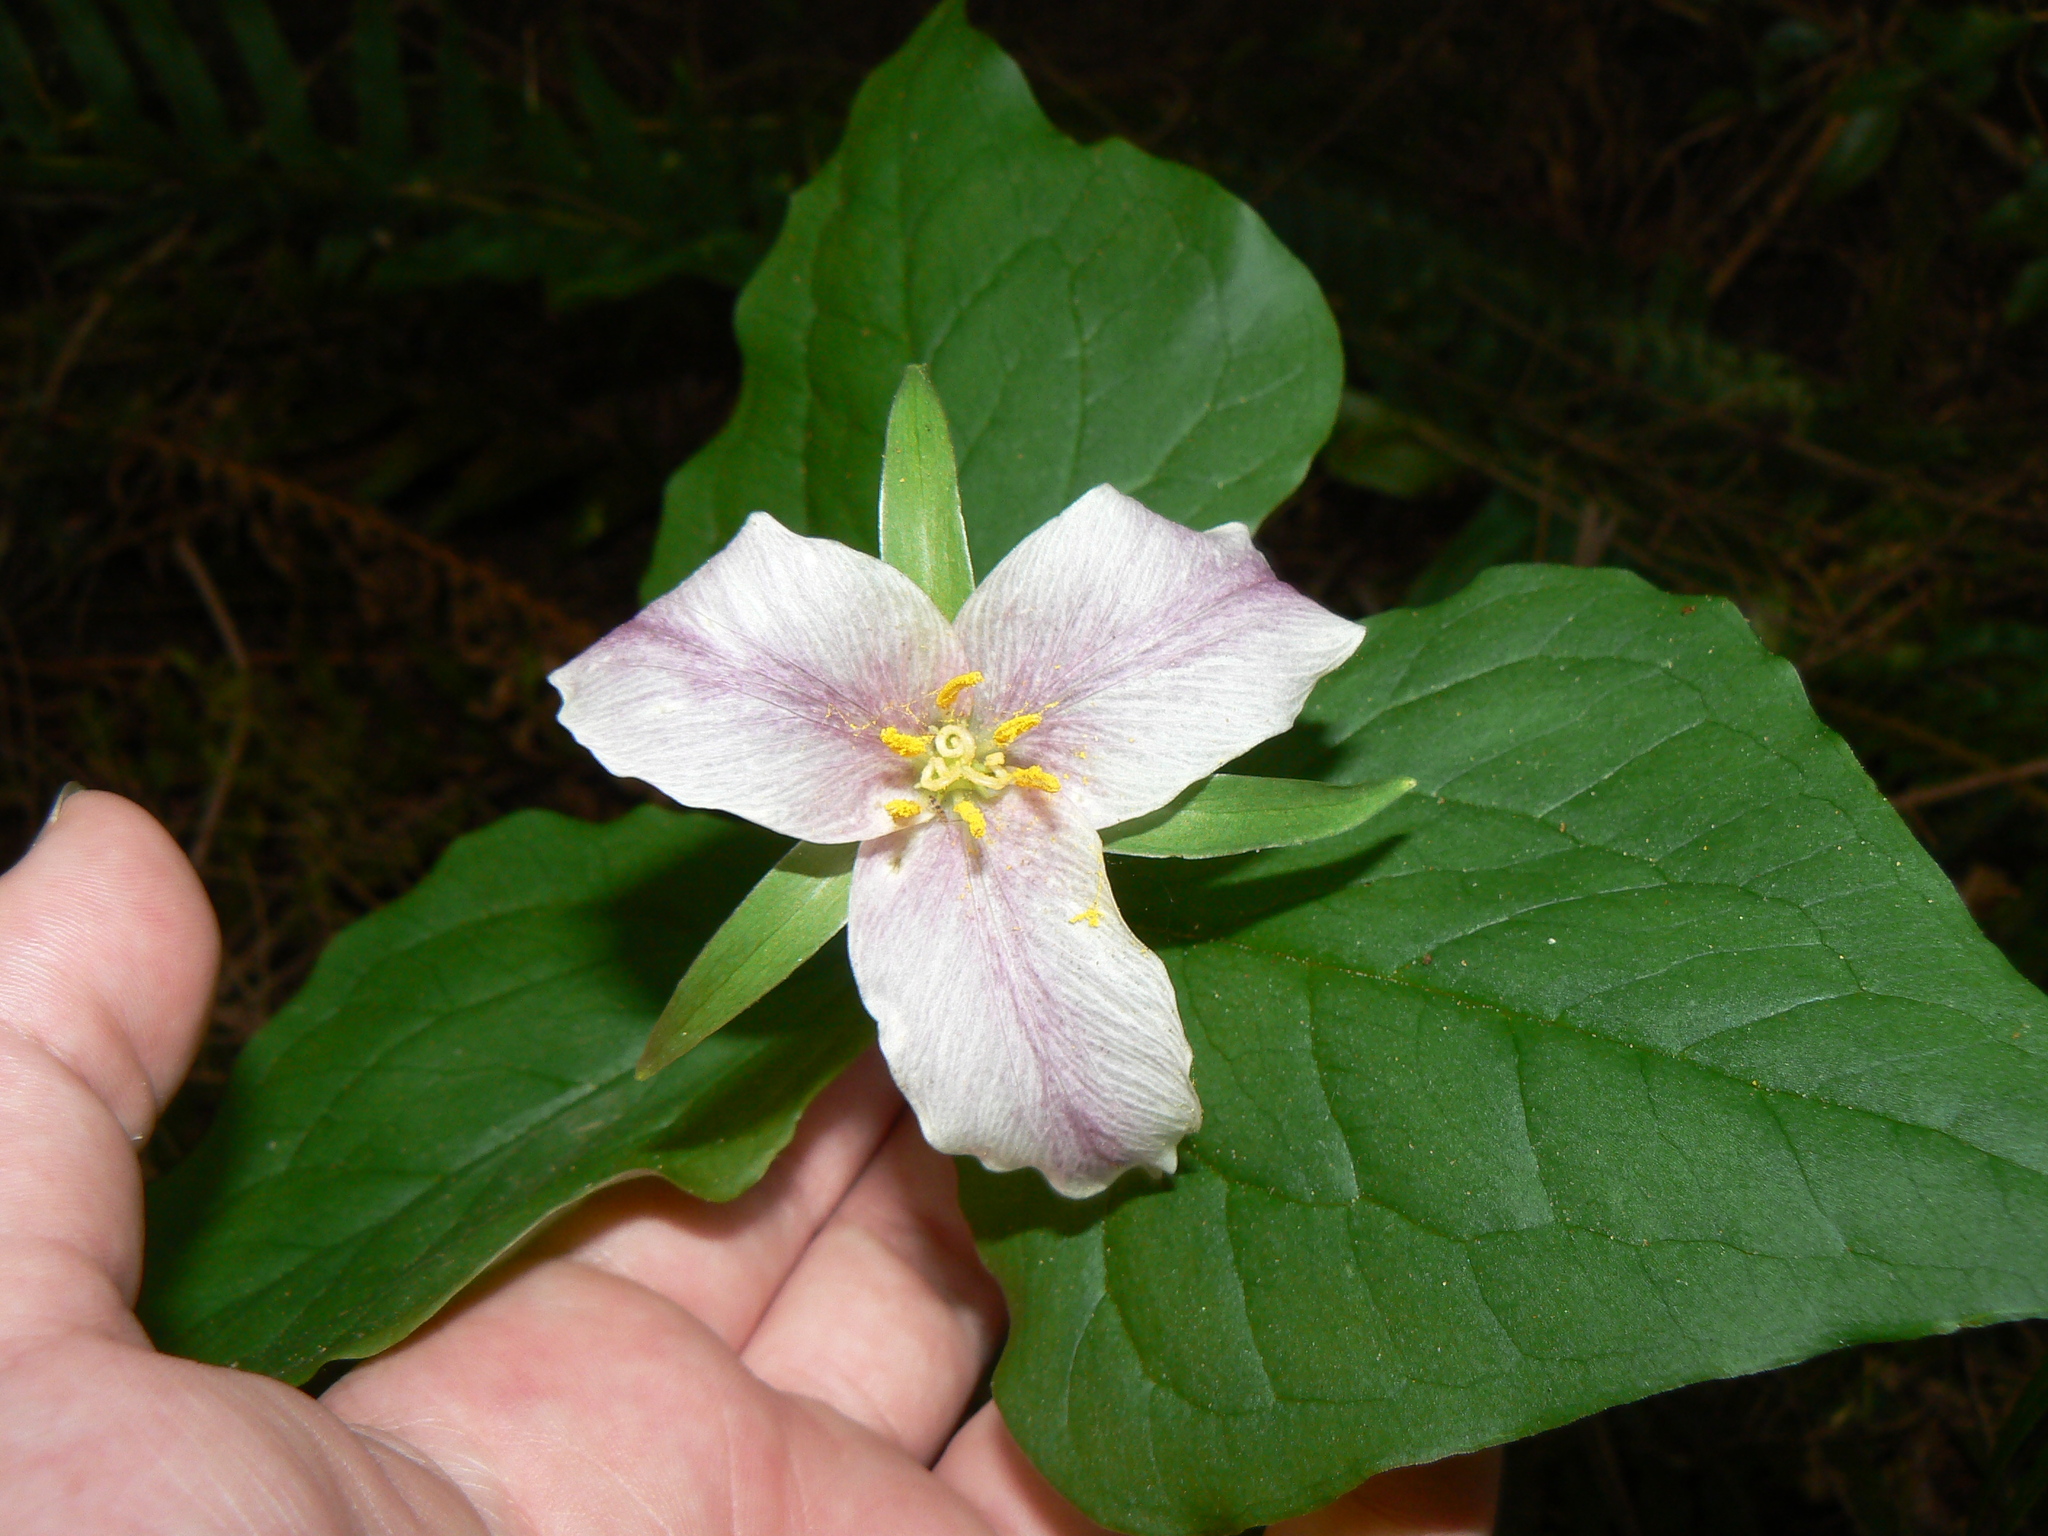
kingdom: Plantae
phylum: Tracheophyta
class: Liliopsida
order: Liliales
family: Melanthiaceae
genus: Trillium
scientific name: Trillium ovatum
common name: Pacific trillium
